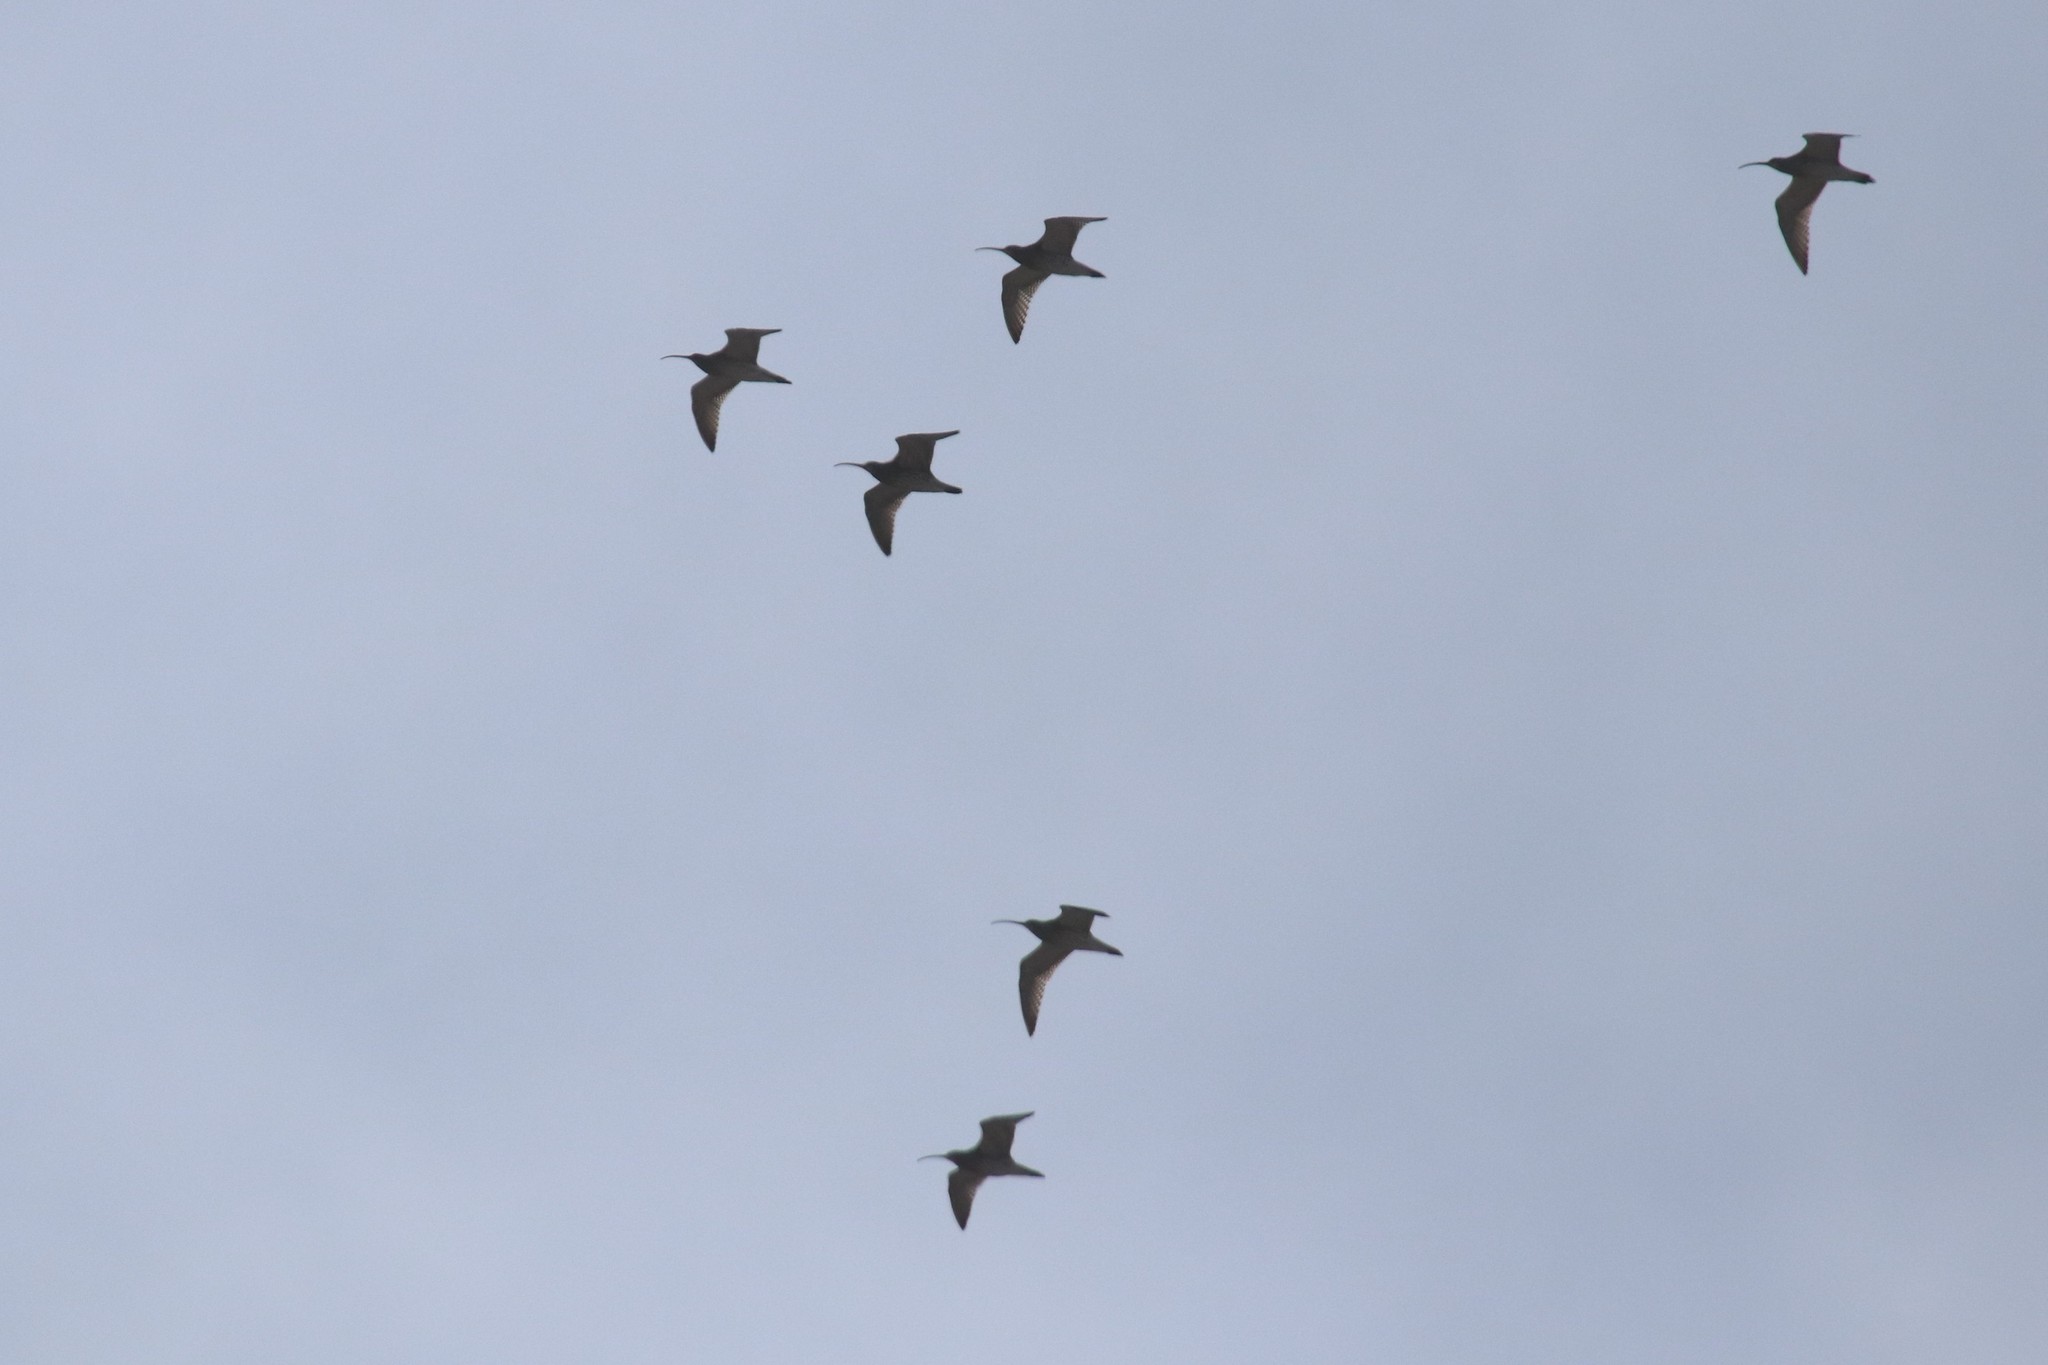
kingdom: Animalia
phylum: Chordata
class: Aves
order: Charadriiformes
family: Scolopacidae
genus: Numenius
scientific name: Numenius arquata
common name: Eurasian curlew
